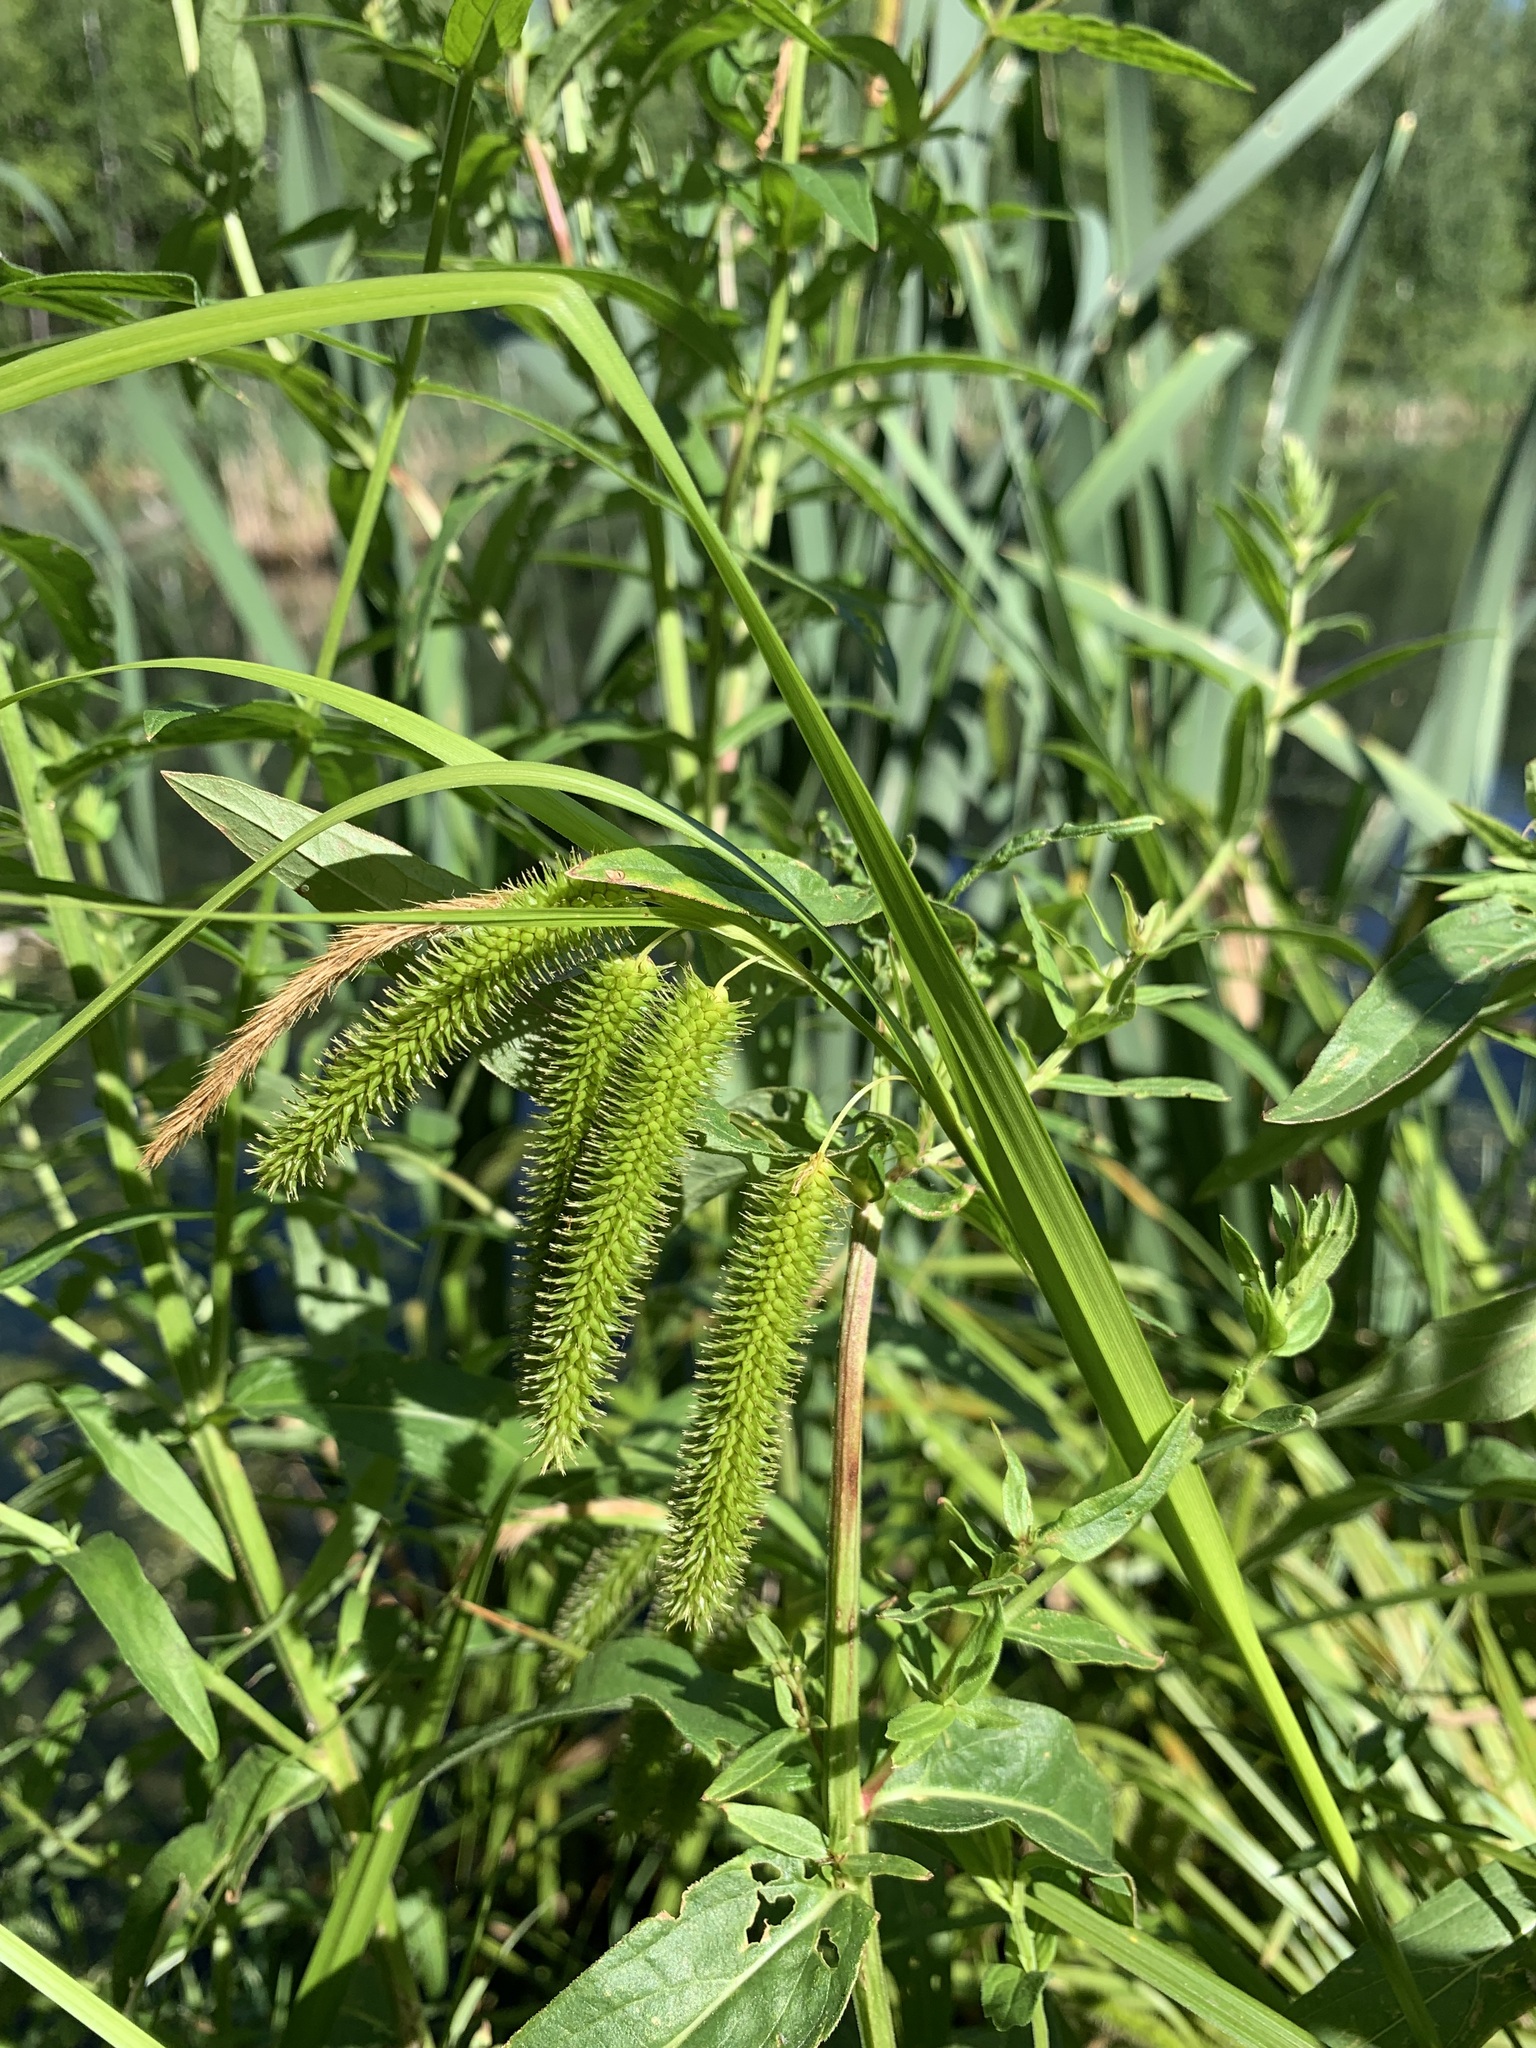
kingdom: Plantae
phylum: Tracheophyta
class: Liliopsida
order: Poales
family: Cyperaceae
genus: Carex
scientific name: Carex pseudocyperus
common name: Cyperus sedge
